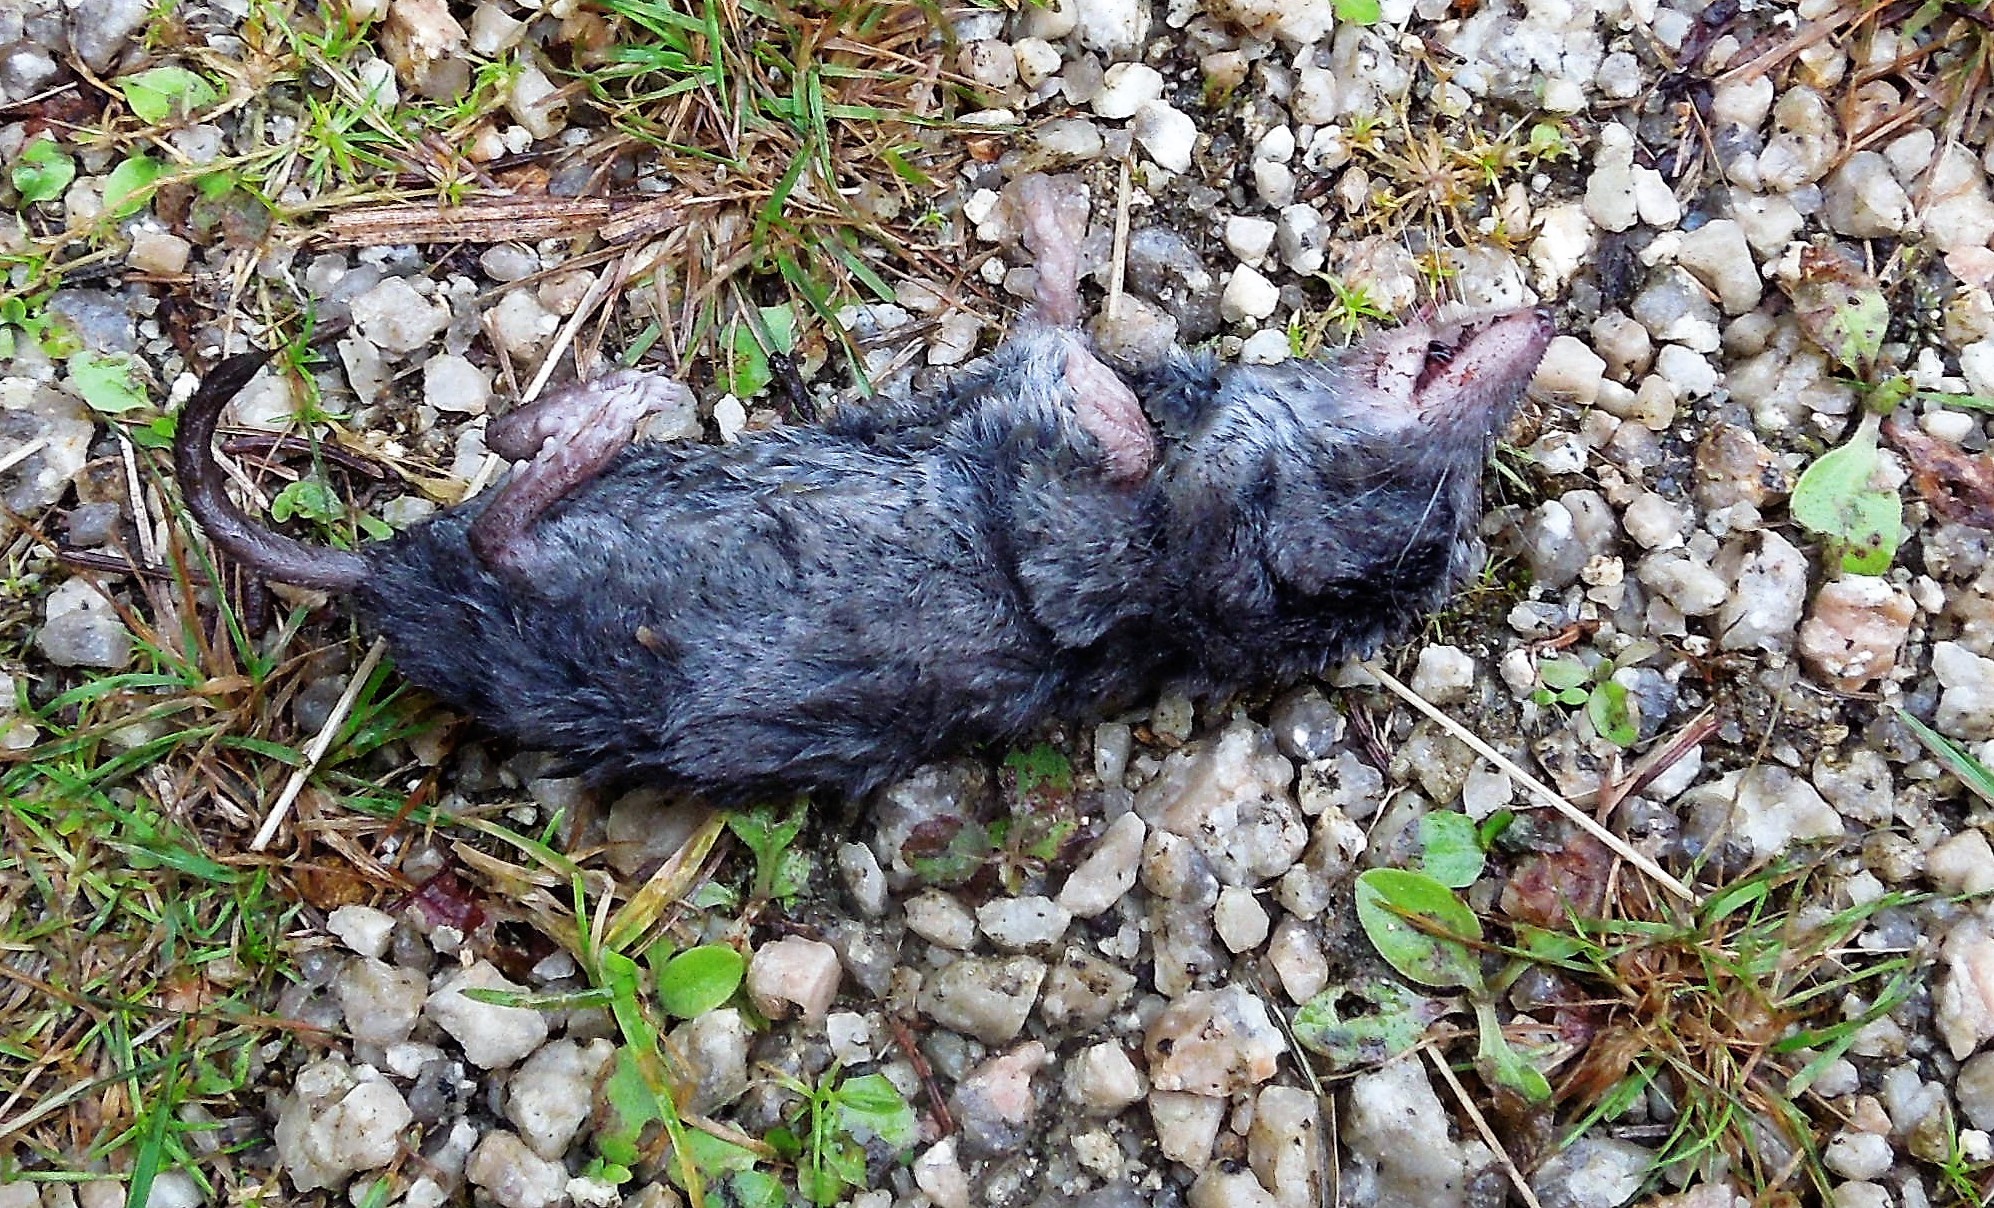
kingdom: Animalia
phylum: Chordata
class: Mammalia
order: Soricomorpha
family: Soricidae
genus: Blarina
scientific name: Blarina brevicauda
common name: Northern short-tailed shrew
